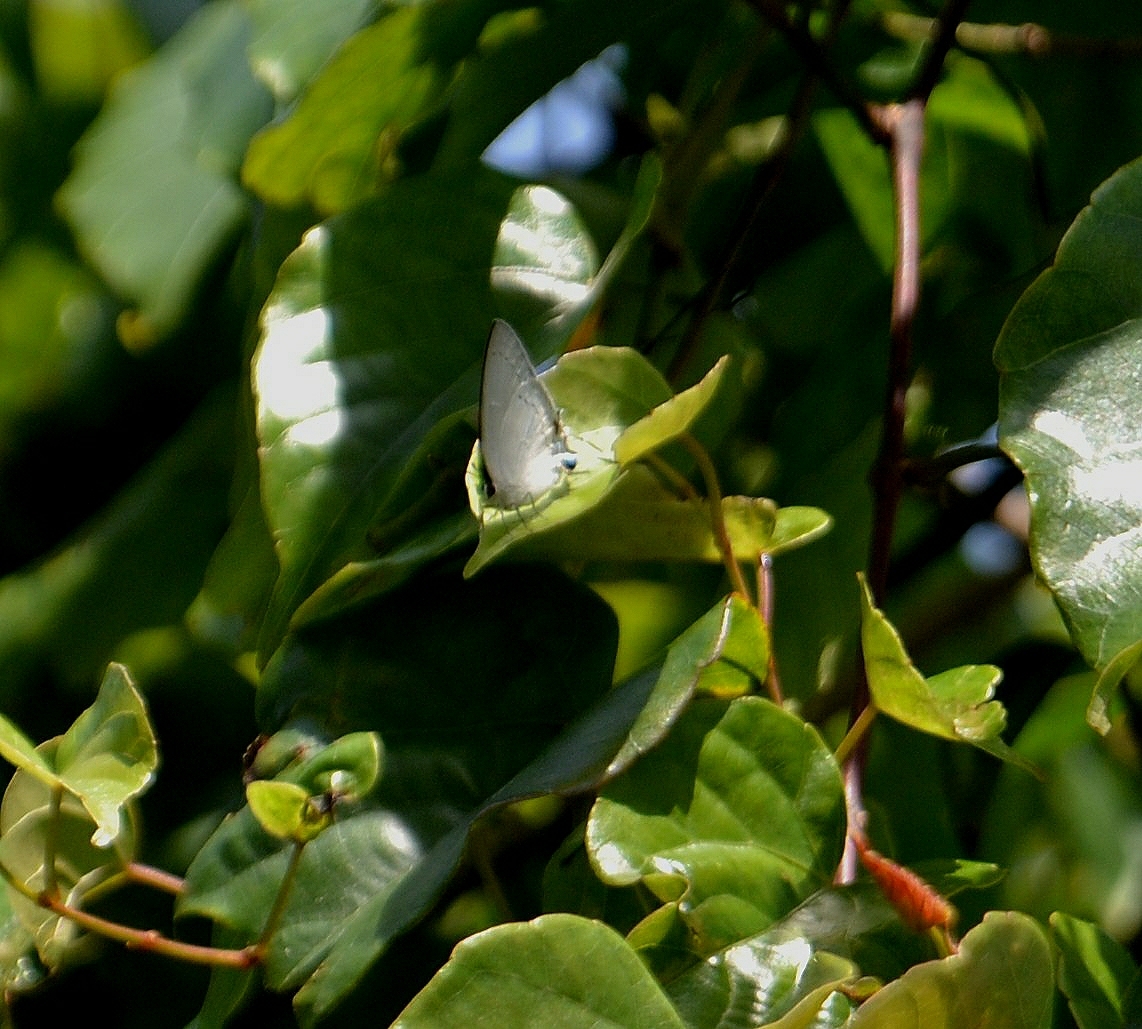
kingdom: Animalia
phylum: Arthropoda
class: Insecta
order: Lepidoptera
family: Lycaenidae
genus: Tajuria
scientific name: Tajuria cippus
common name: Peacock royal
